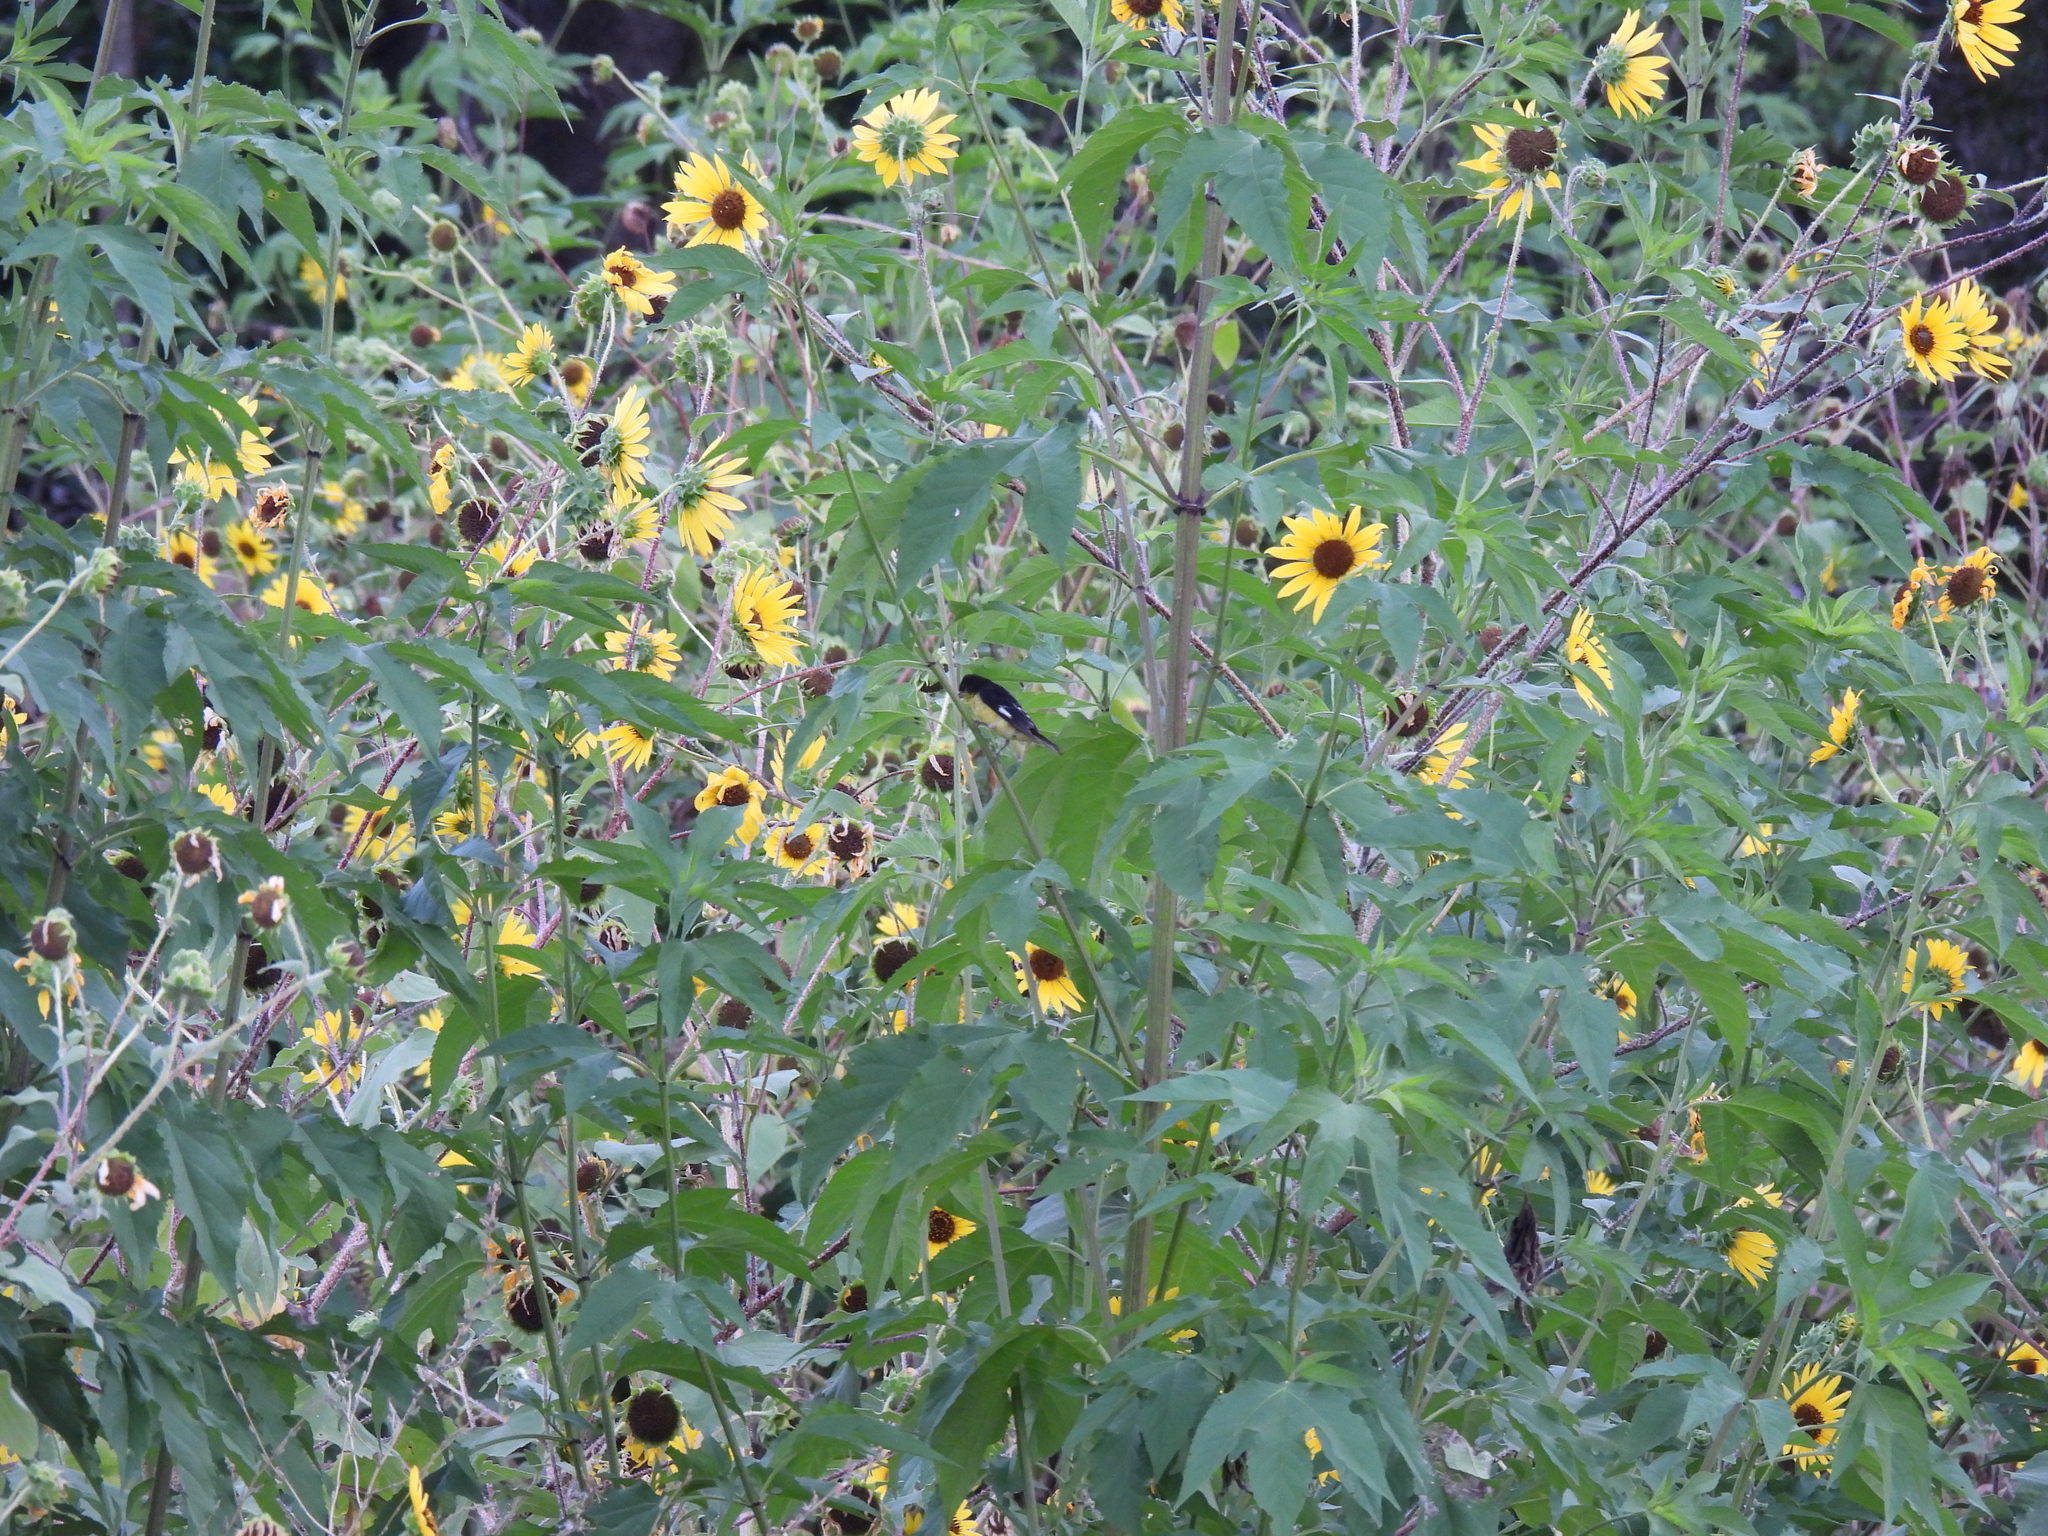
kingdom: Animalia
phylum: Chordata
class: Aves
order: Passeriformes
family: Fringillidae
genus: Spinus
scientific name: Spinus psaltria
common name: Lesser goldfinch
